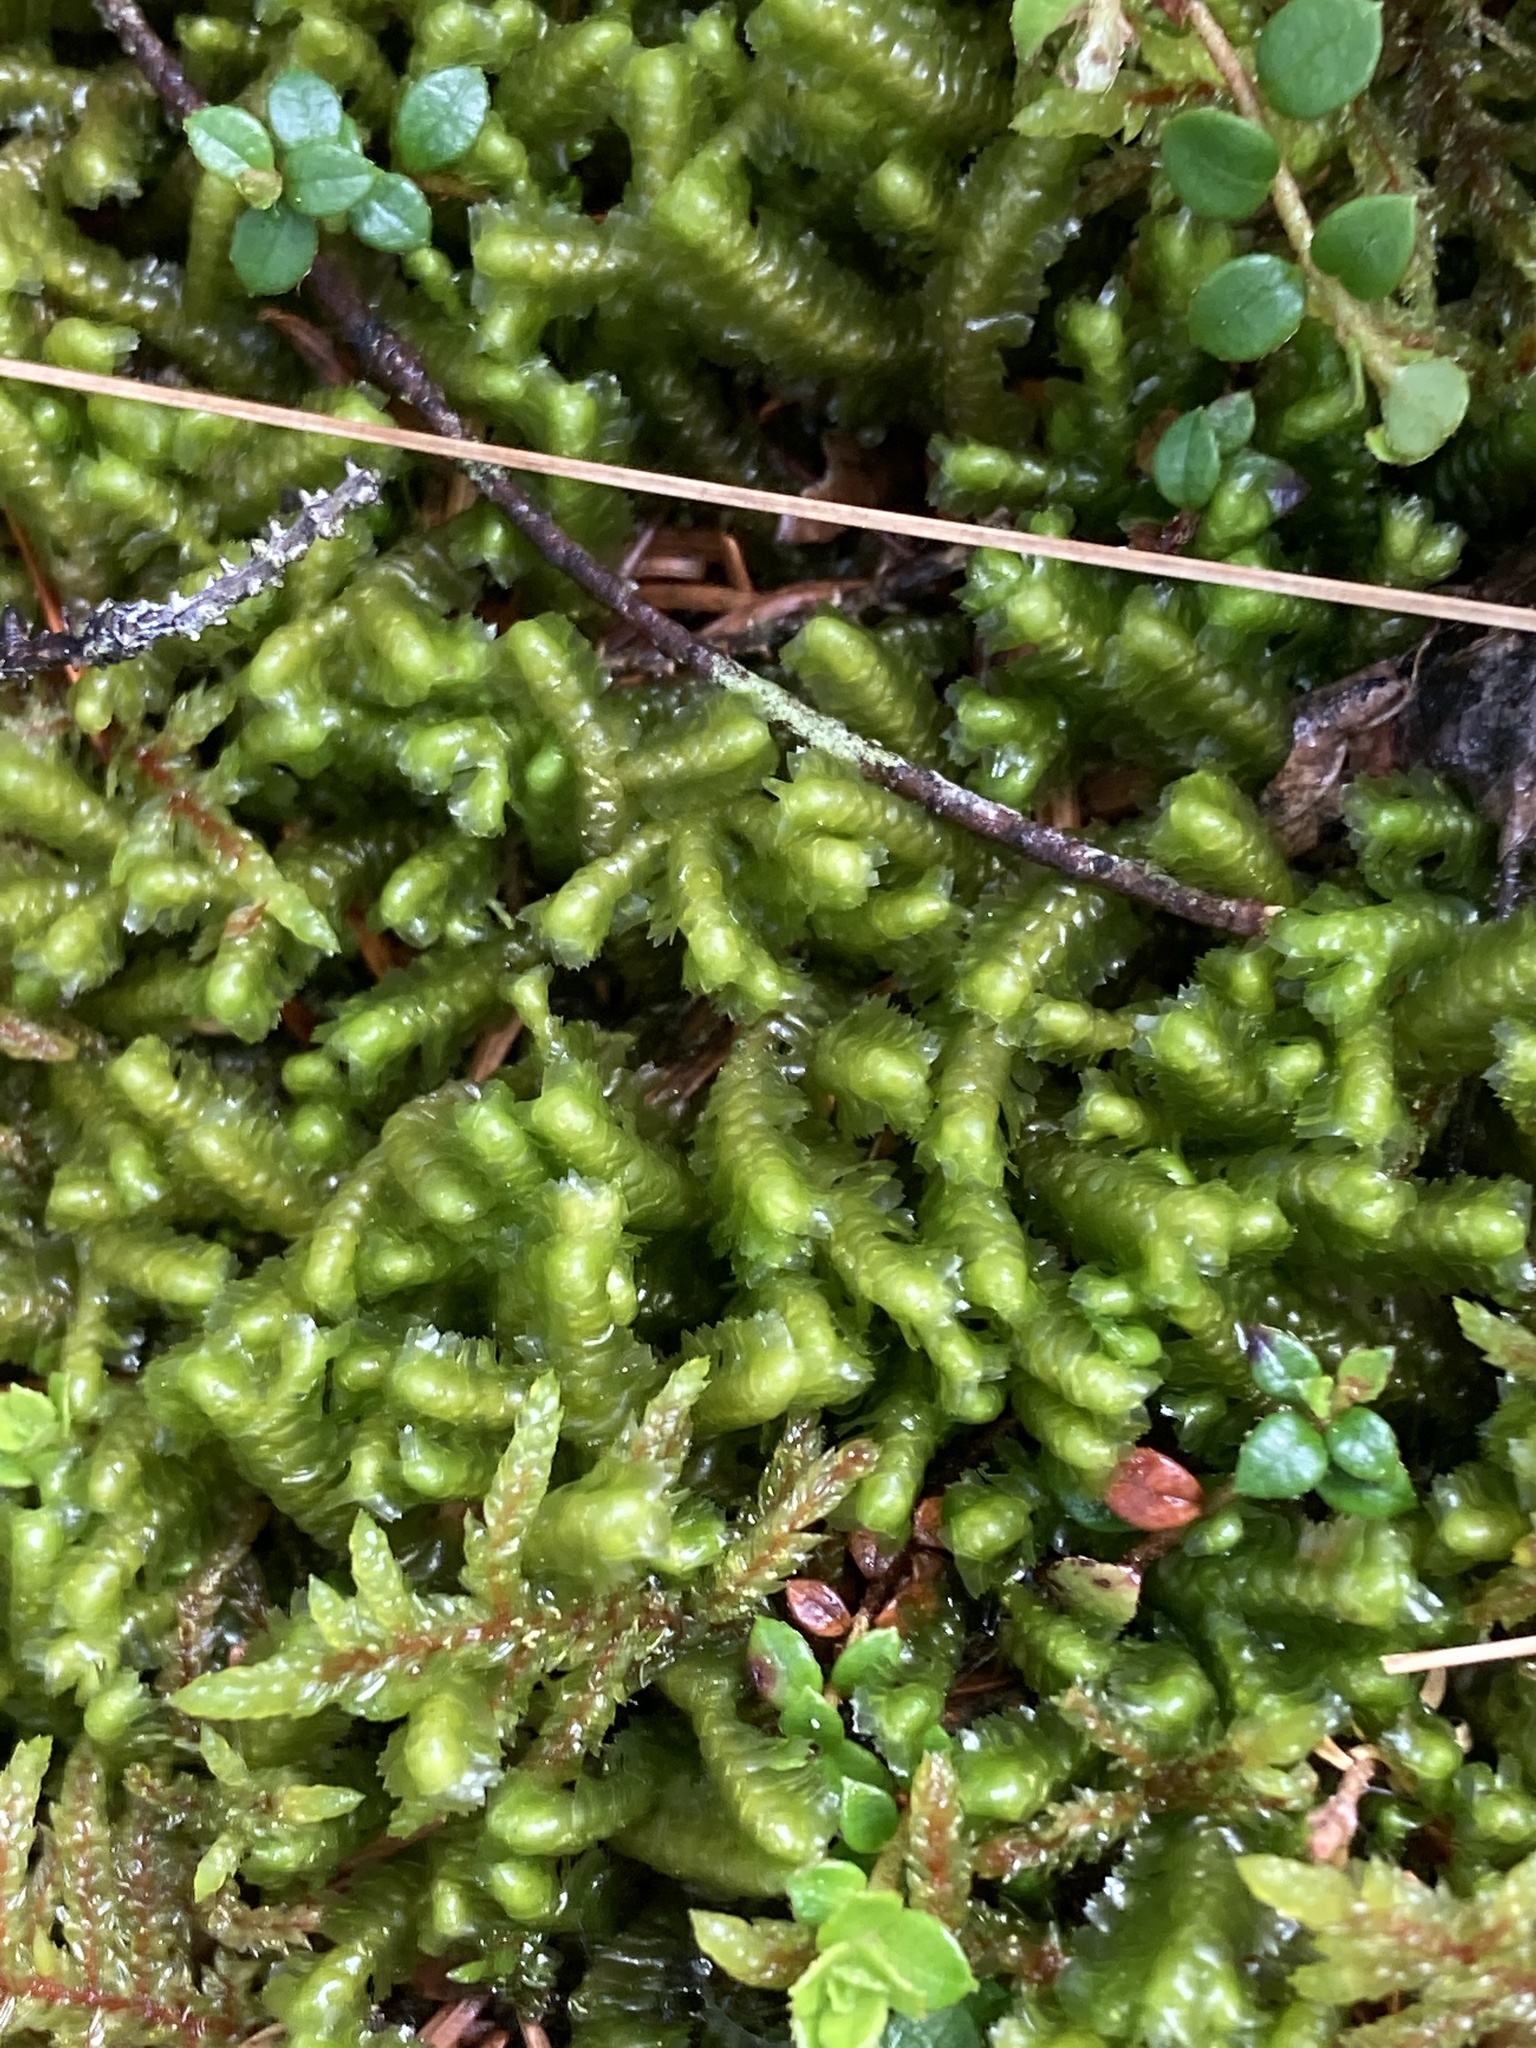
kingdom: Plantae
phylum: Marchantiophyta
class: Jungermanniopsida
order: Jungermanniales
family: Lepidoziaceae
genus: Bazzania
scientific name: Bazzania trilobata
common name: Three-lobed whipwort
